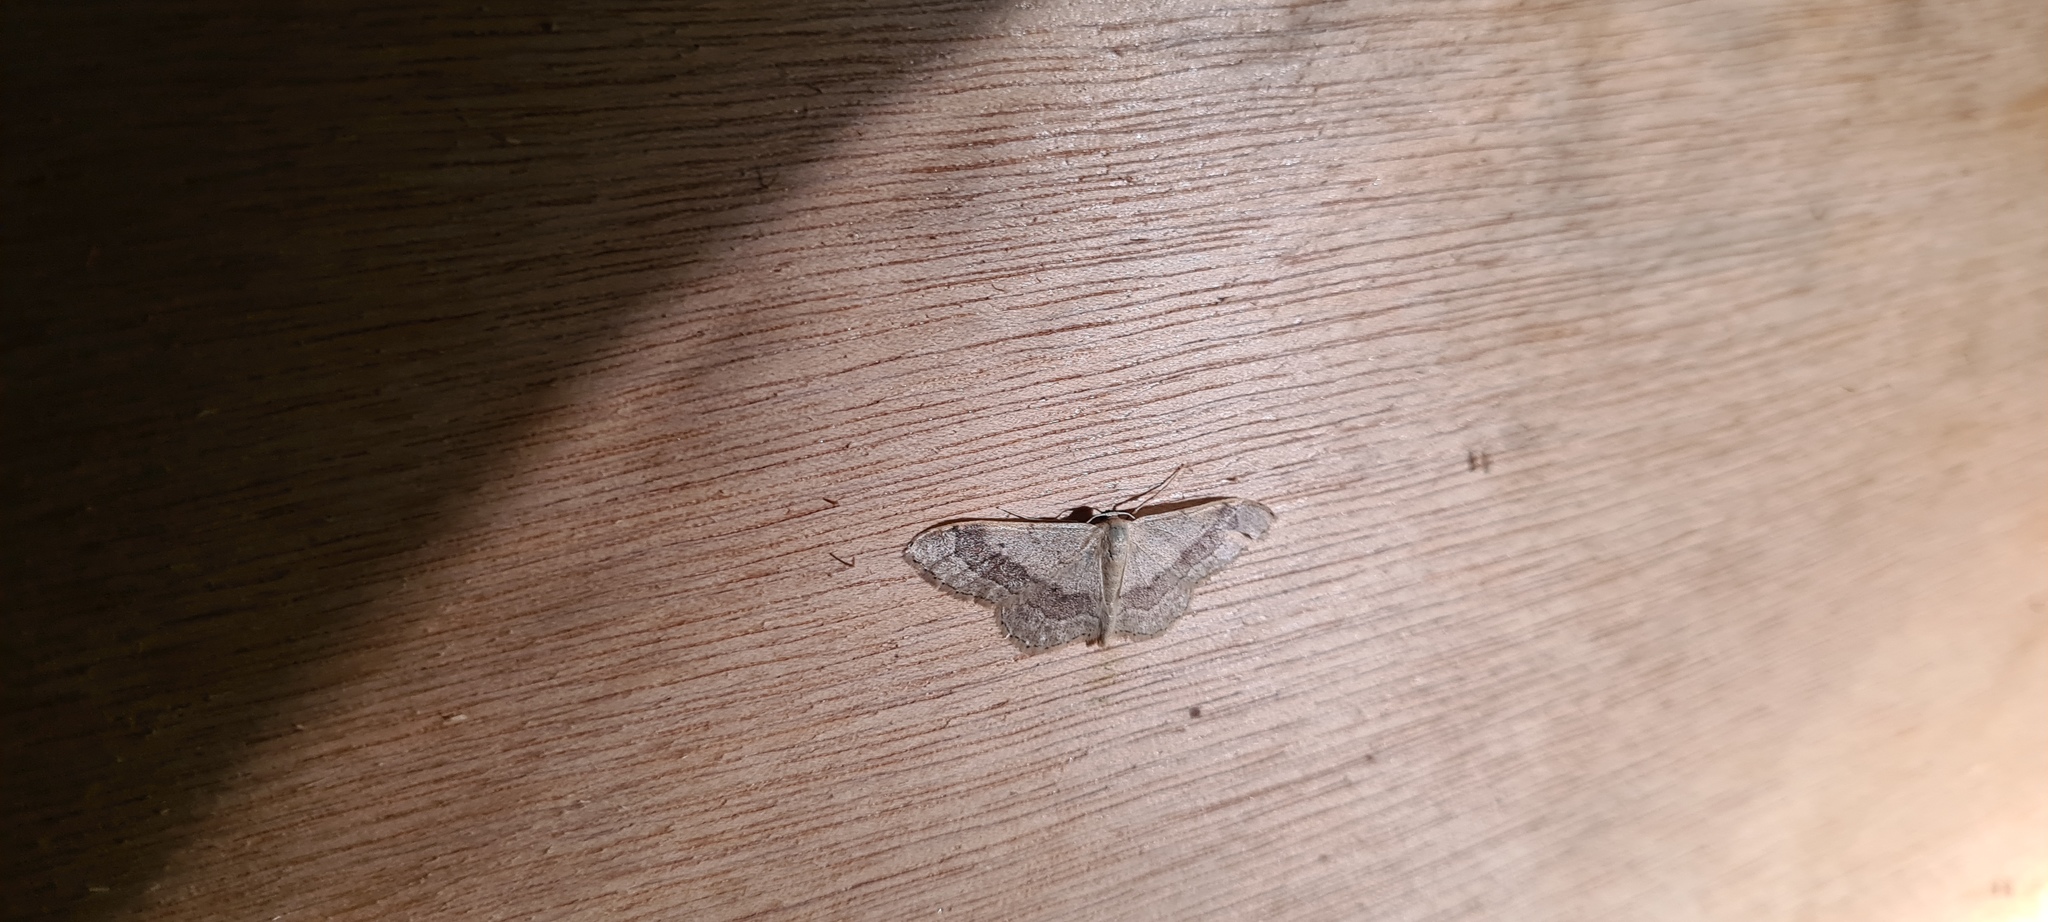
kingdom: Animalia
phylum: Arthropoda
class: Insecta
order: Lepidoptera
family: Geometridae
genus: Idaea
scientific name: Idaea aversata
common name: Riband wave
